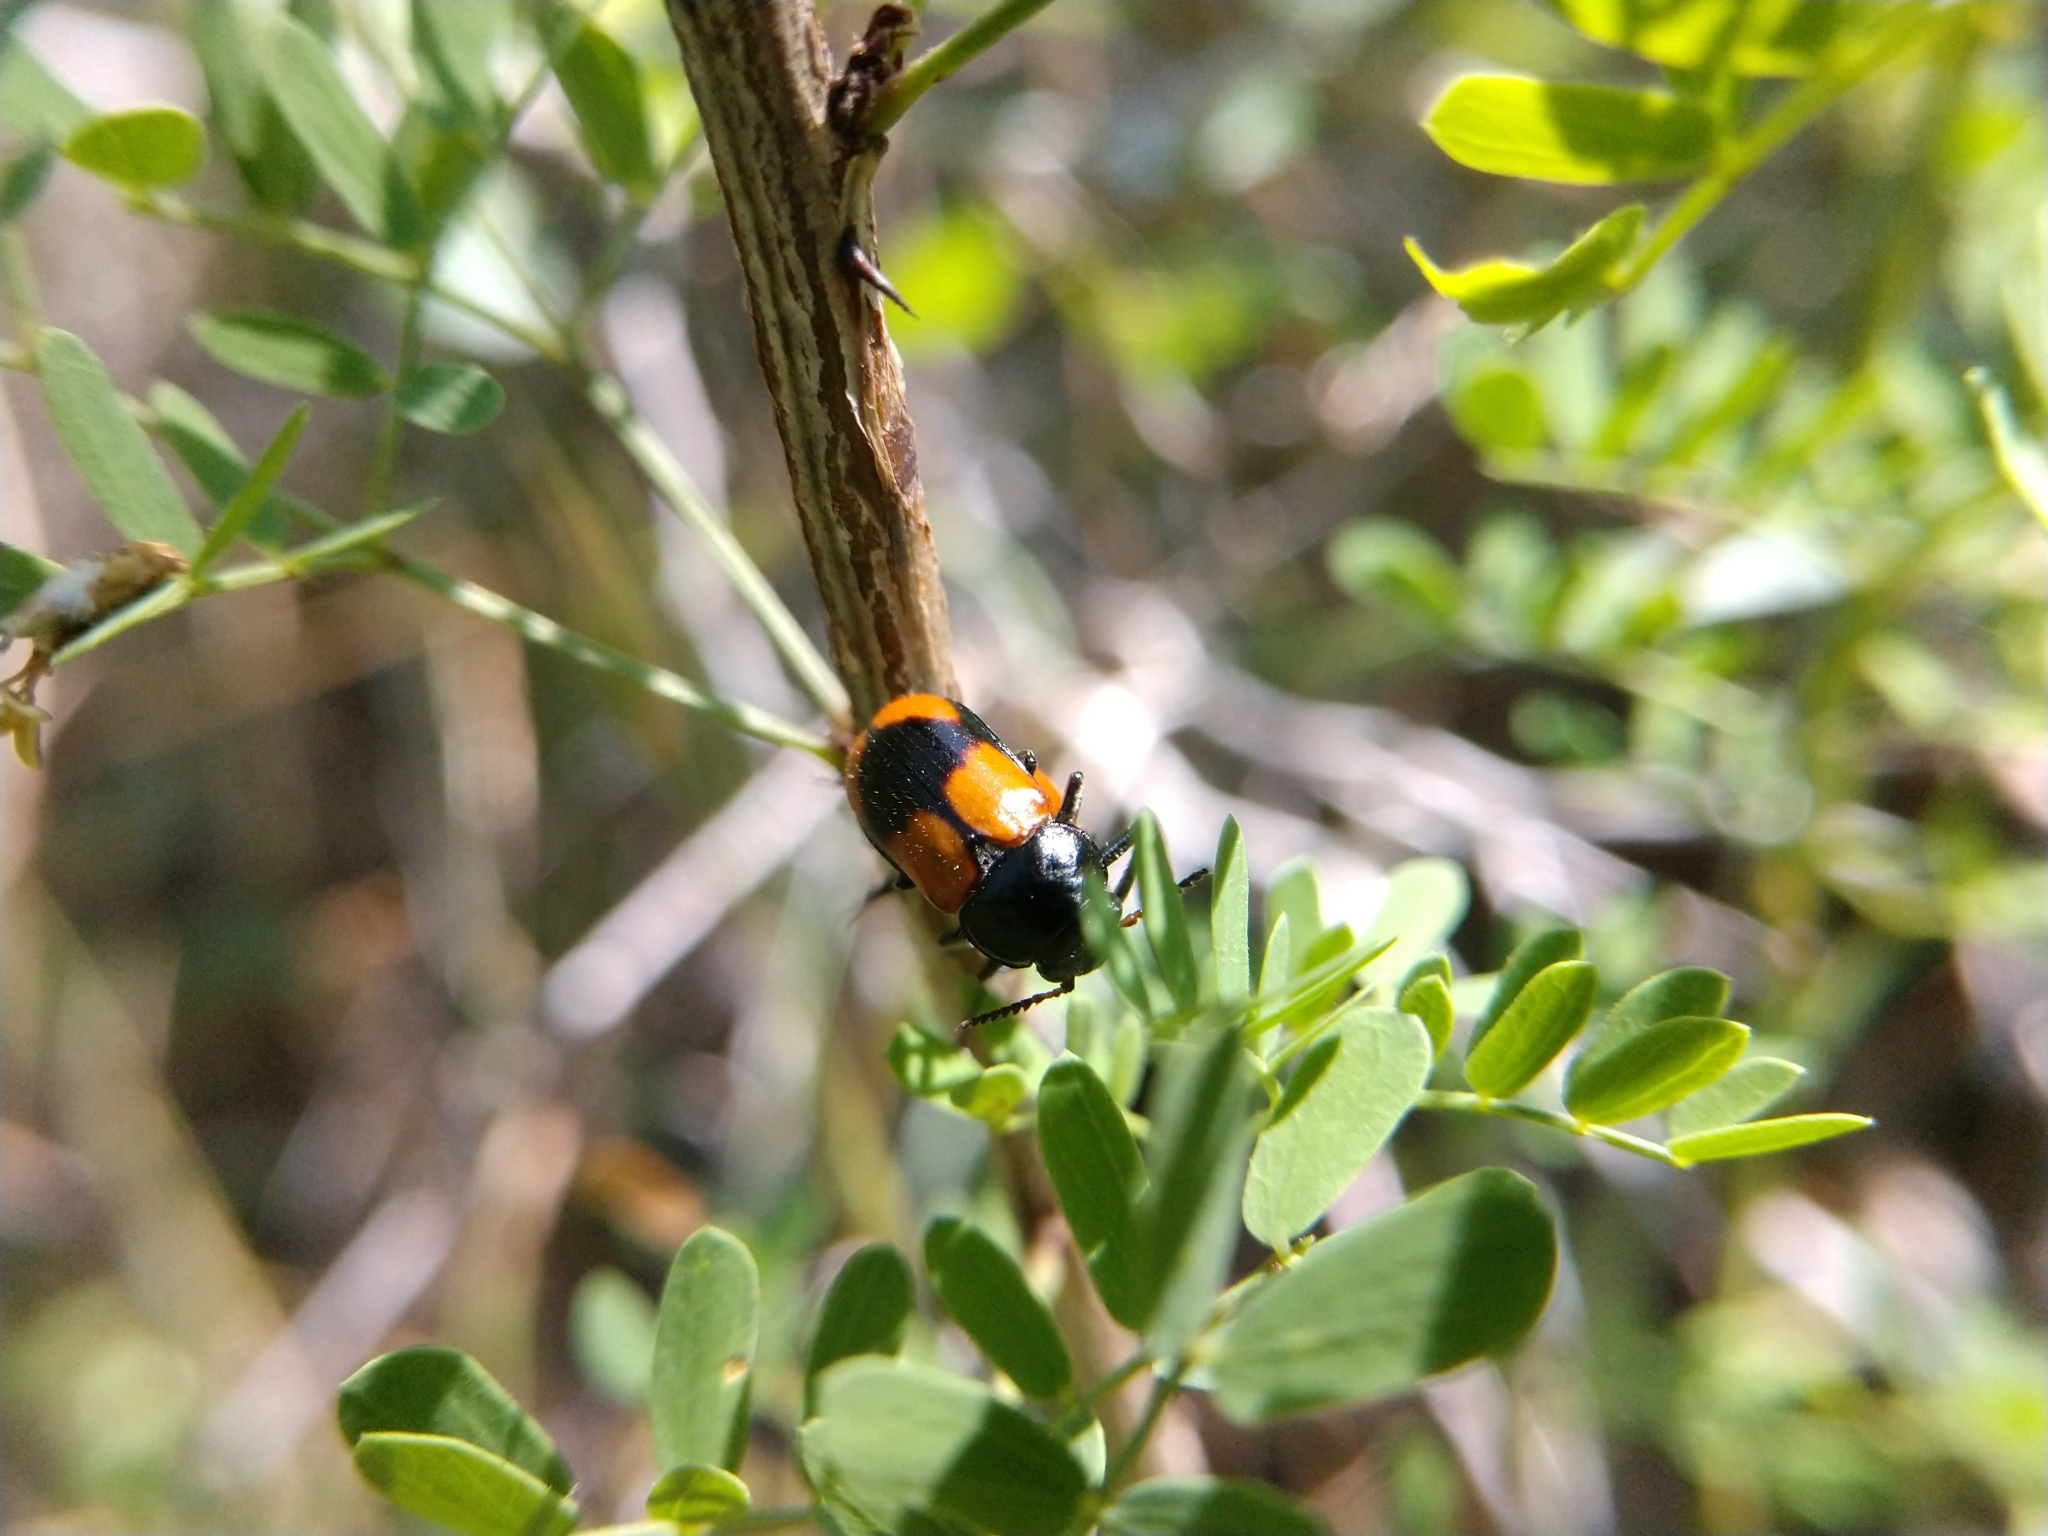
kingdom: Animalia
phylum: Arthropoda
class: Insecta
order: Coleoptera
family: Chrysomelidae
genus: Anomoea
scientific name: Anomoea rufifrons
